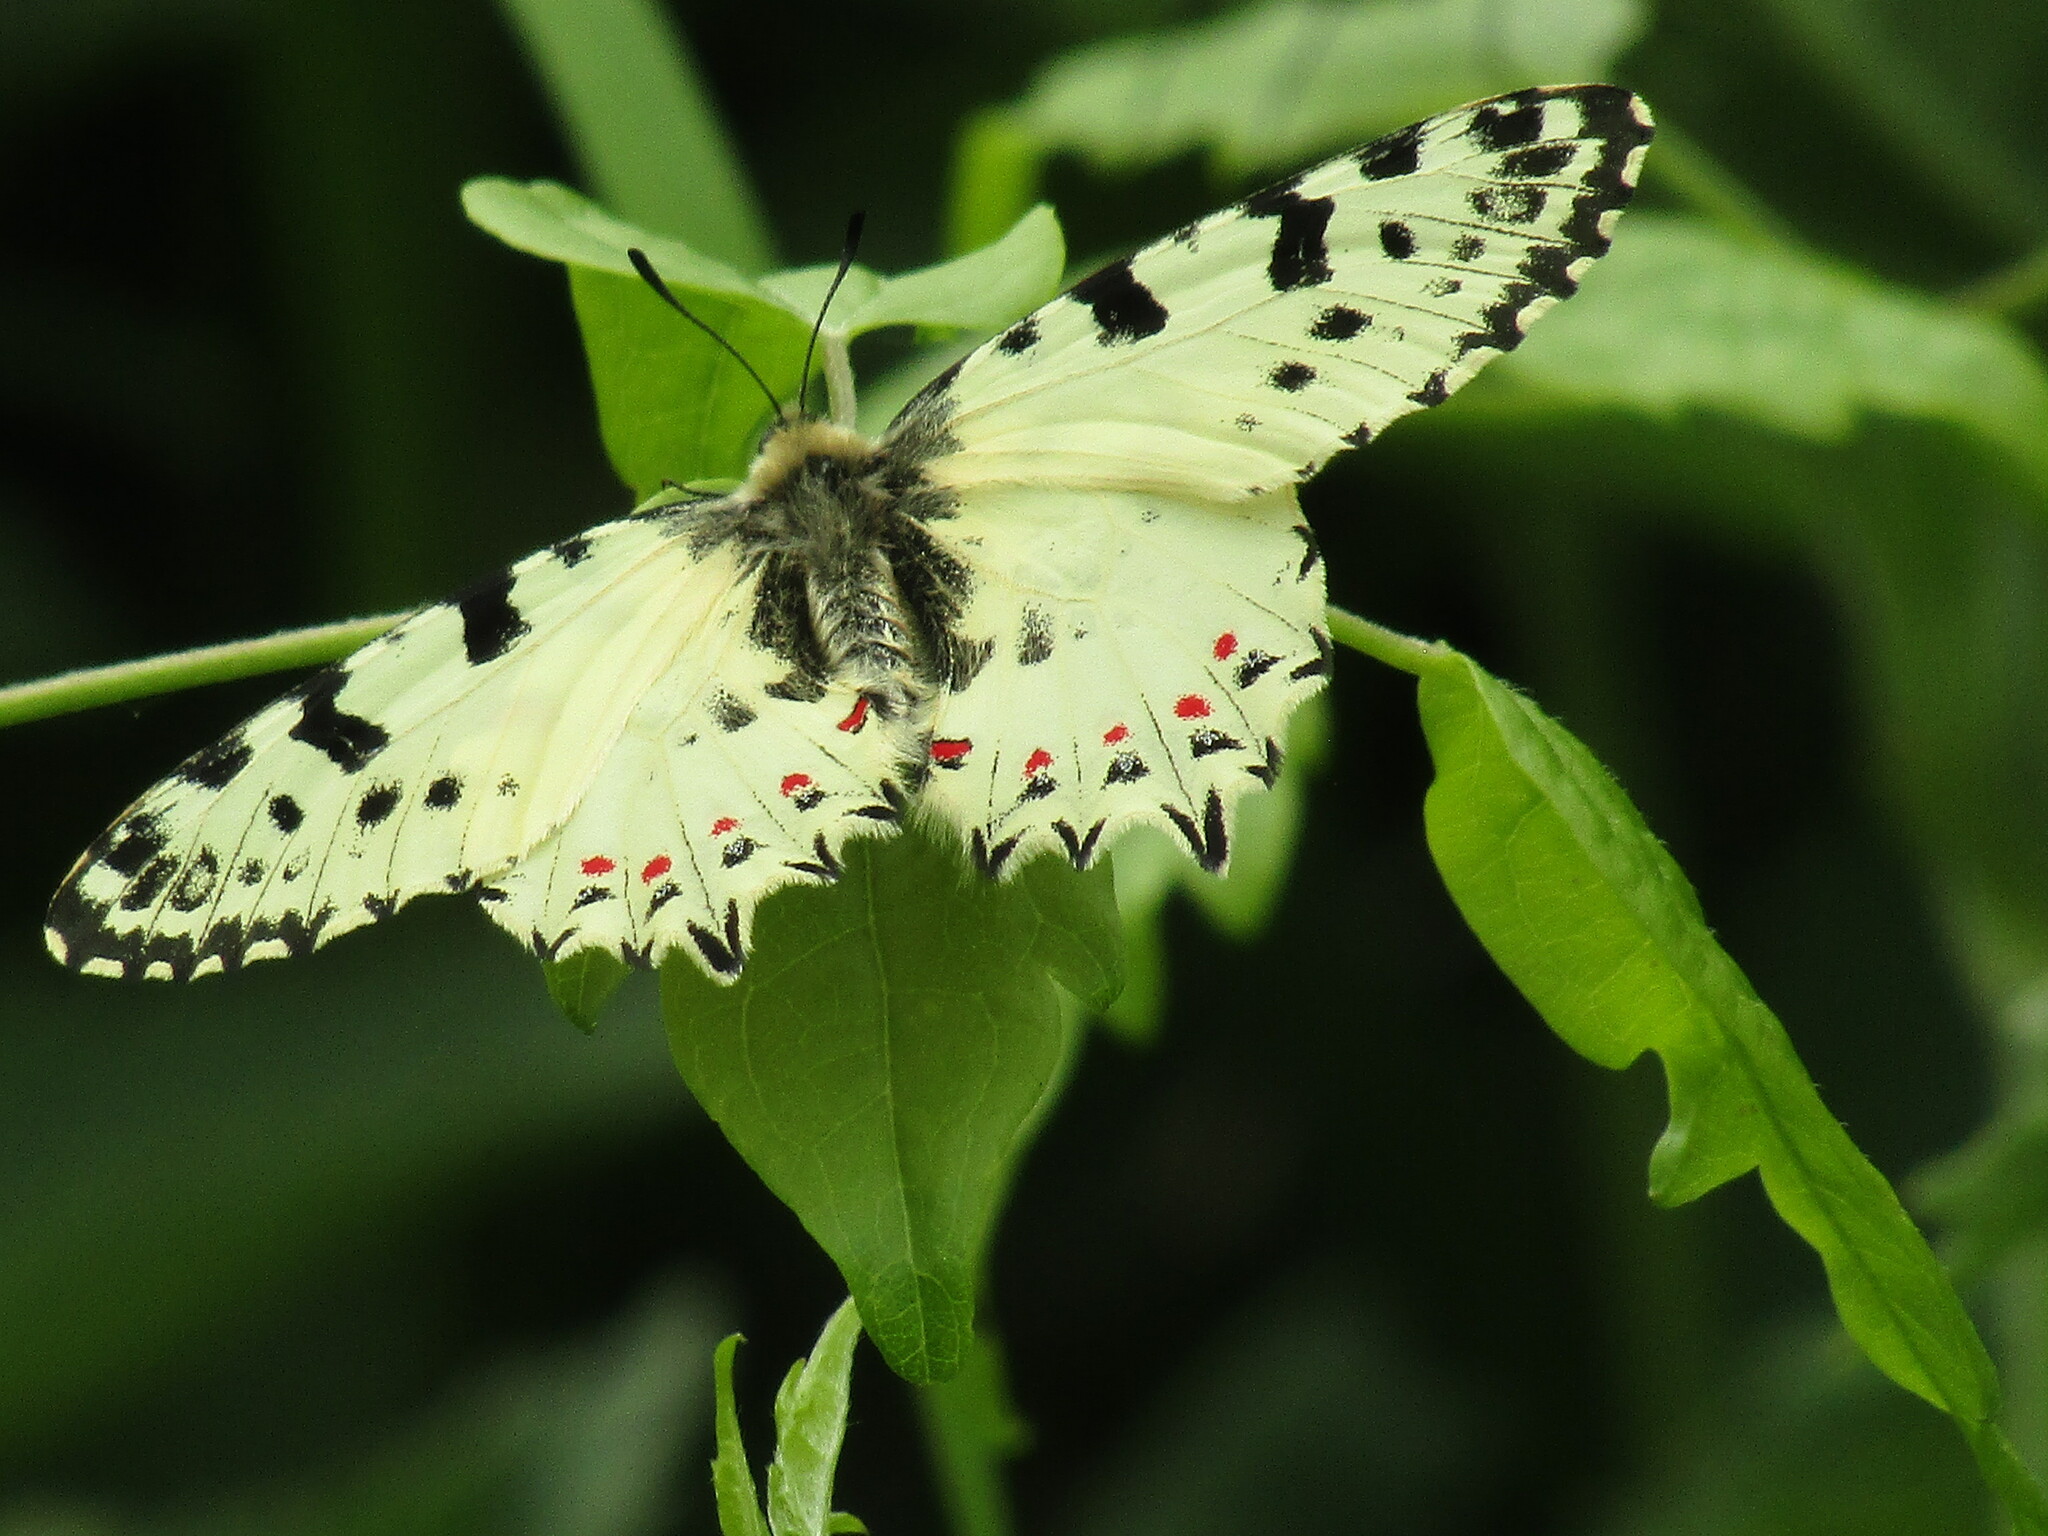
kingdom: Animalia
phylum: Arthropoda
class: Insecta
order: Lepidoptera
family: Papilionidae
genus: Zerynthia
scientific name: Zerynthia cerisy
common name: Eastern festoon
